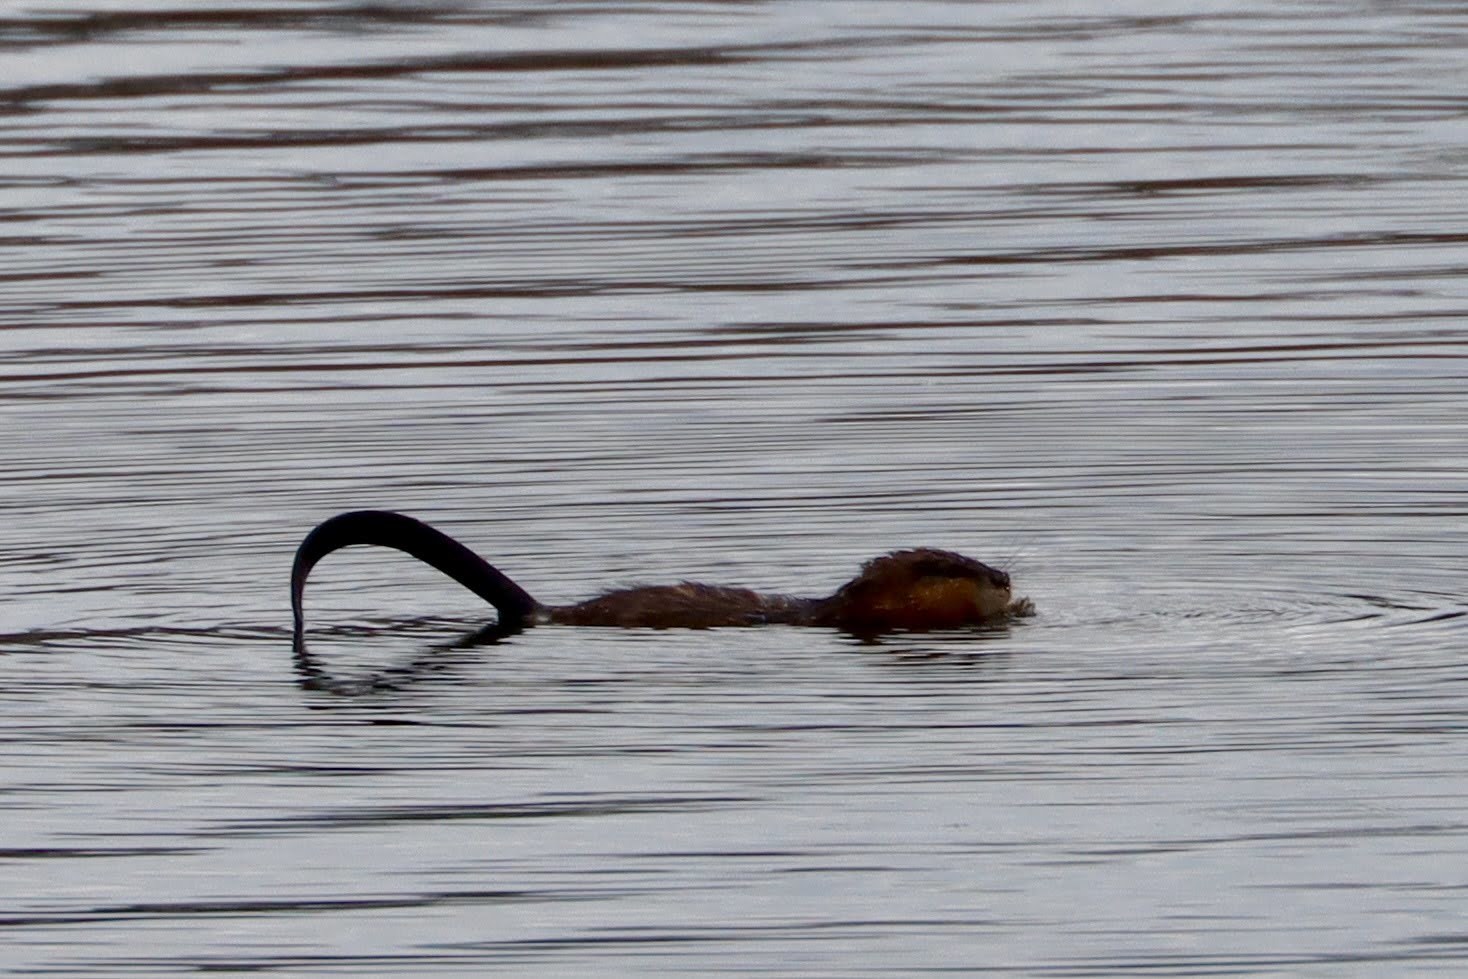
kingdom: Animalia
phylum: Chordata
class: Mammalia
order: Rodentia
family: Cricetidae
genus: Ondatra
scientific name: Ondatra zibethicus
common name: Muskrat
